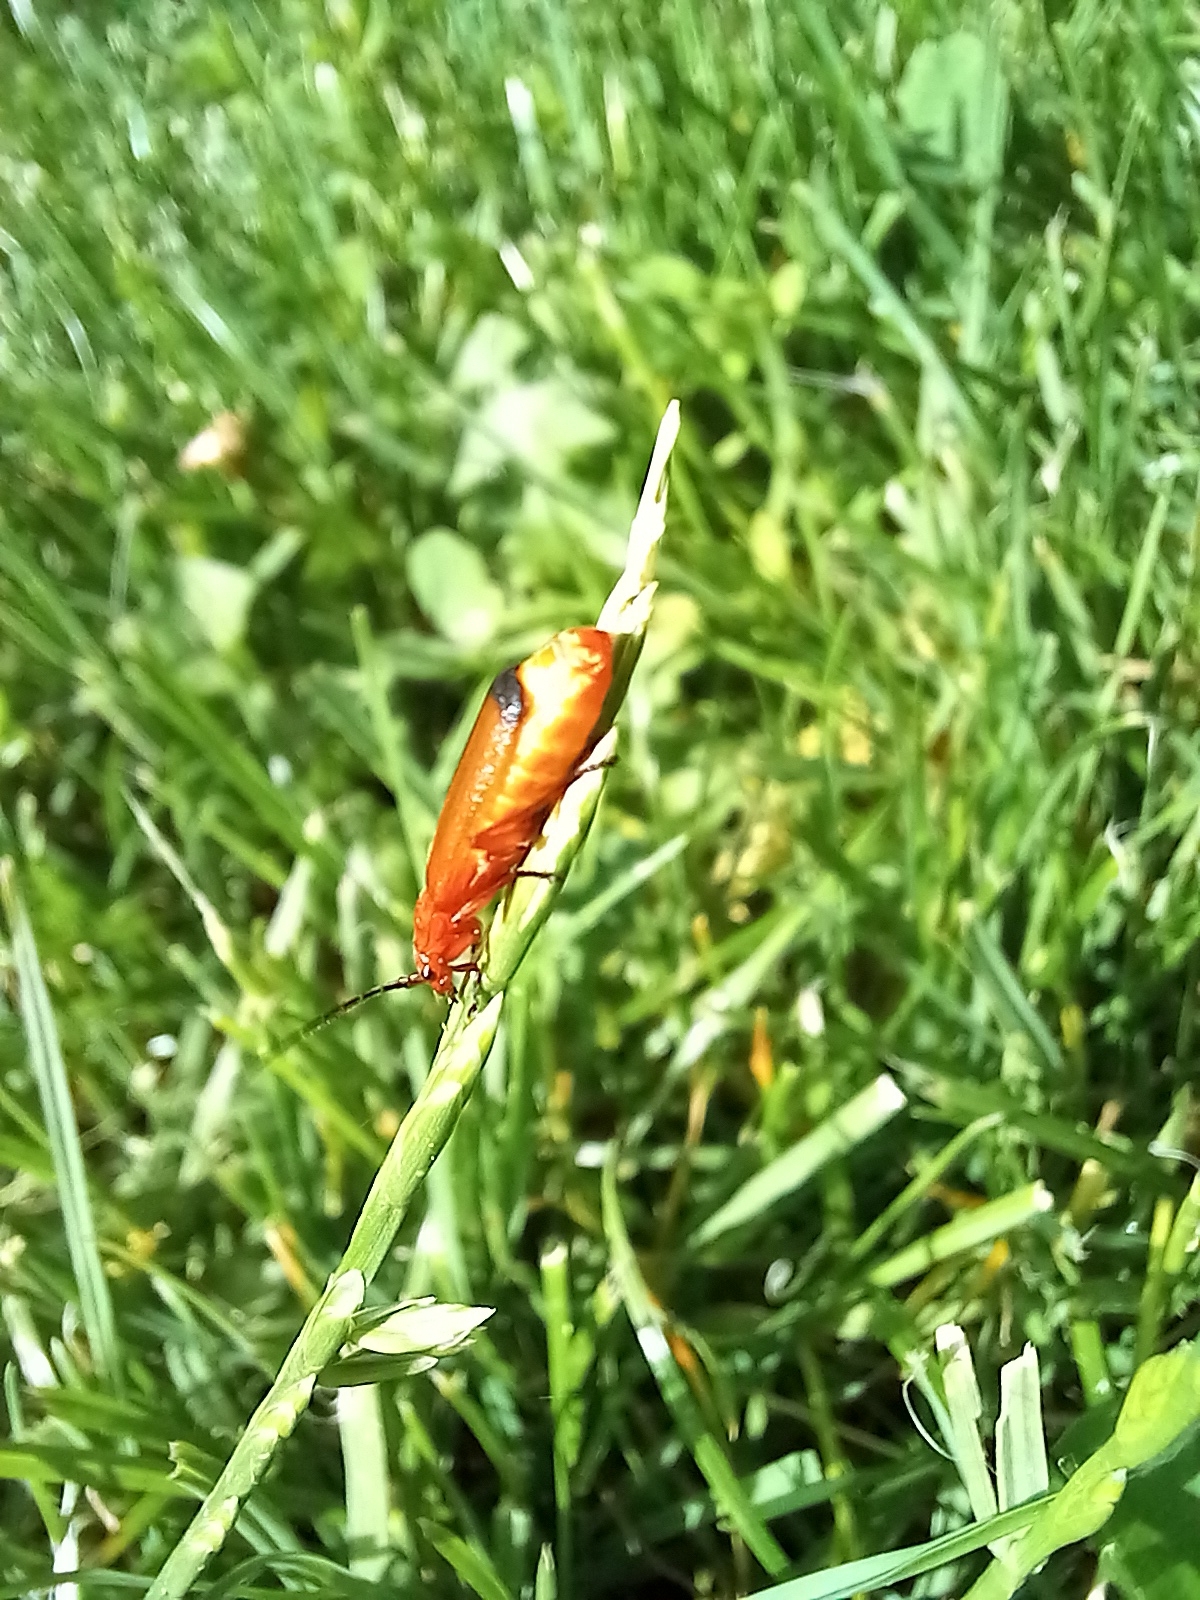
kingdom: Animalia
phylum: Arthropoda
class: Insecta
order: Coleoptera
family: Cantharidae
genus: Rhagonycha
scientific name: Rhagonycha fulva
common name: Common red soldier beetle
